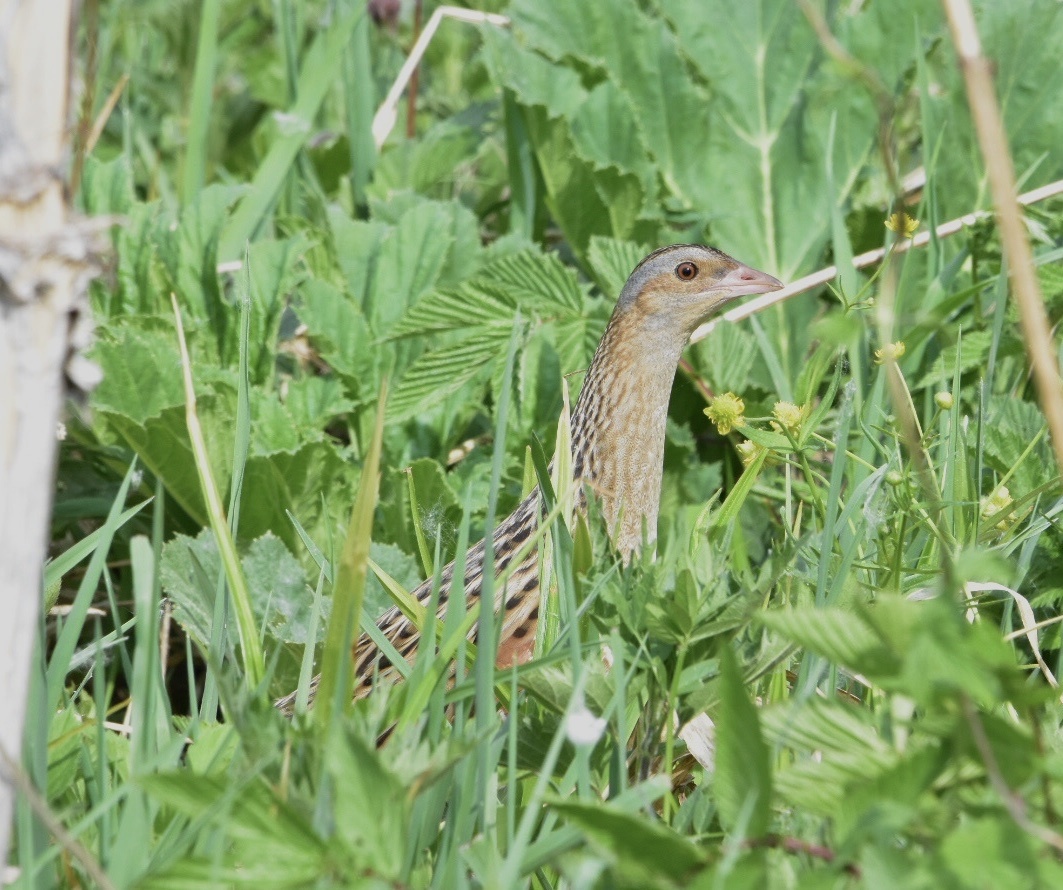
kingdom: Animalia
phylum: Chordata
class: Aves
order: Gruiformes
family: Rallidae
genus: Crex
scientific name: Crex crex
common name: Corn crake
